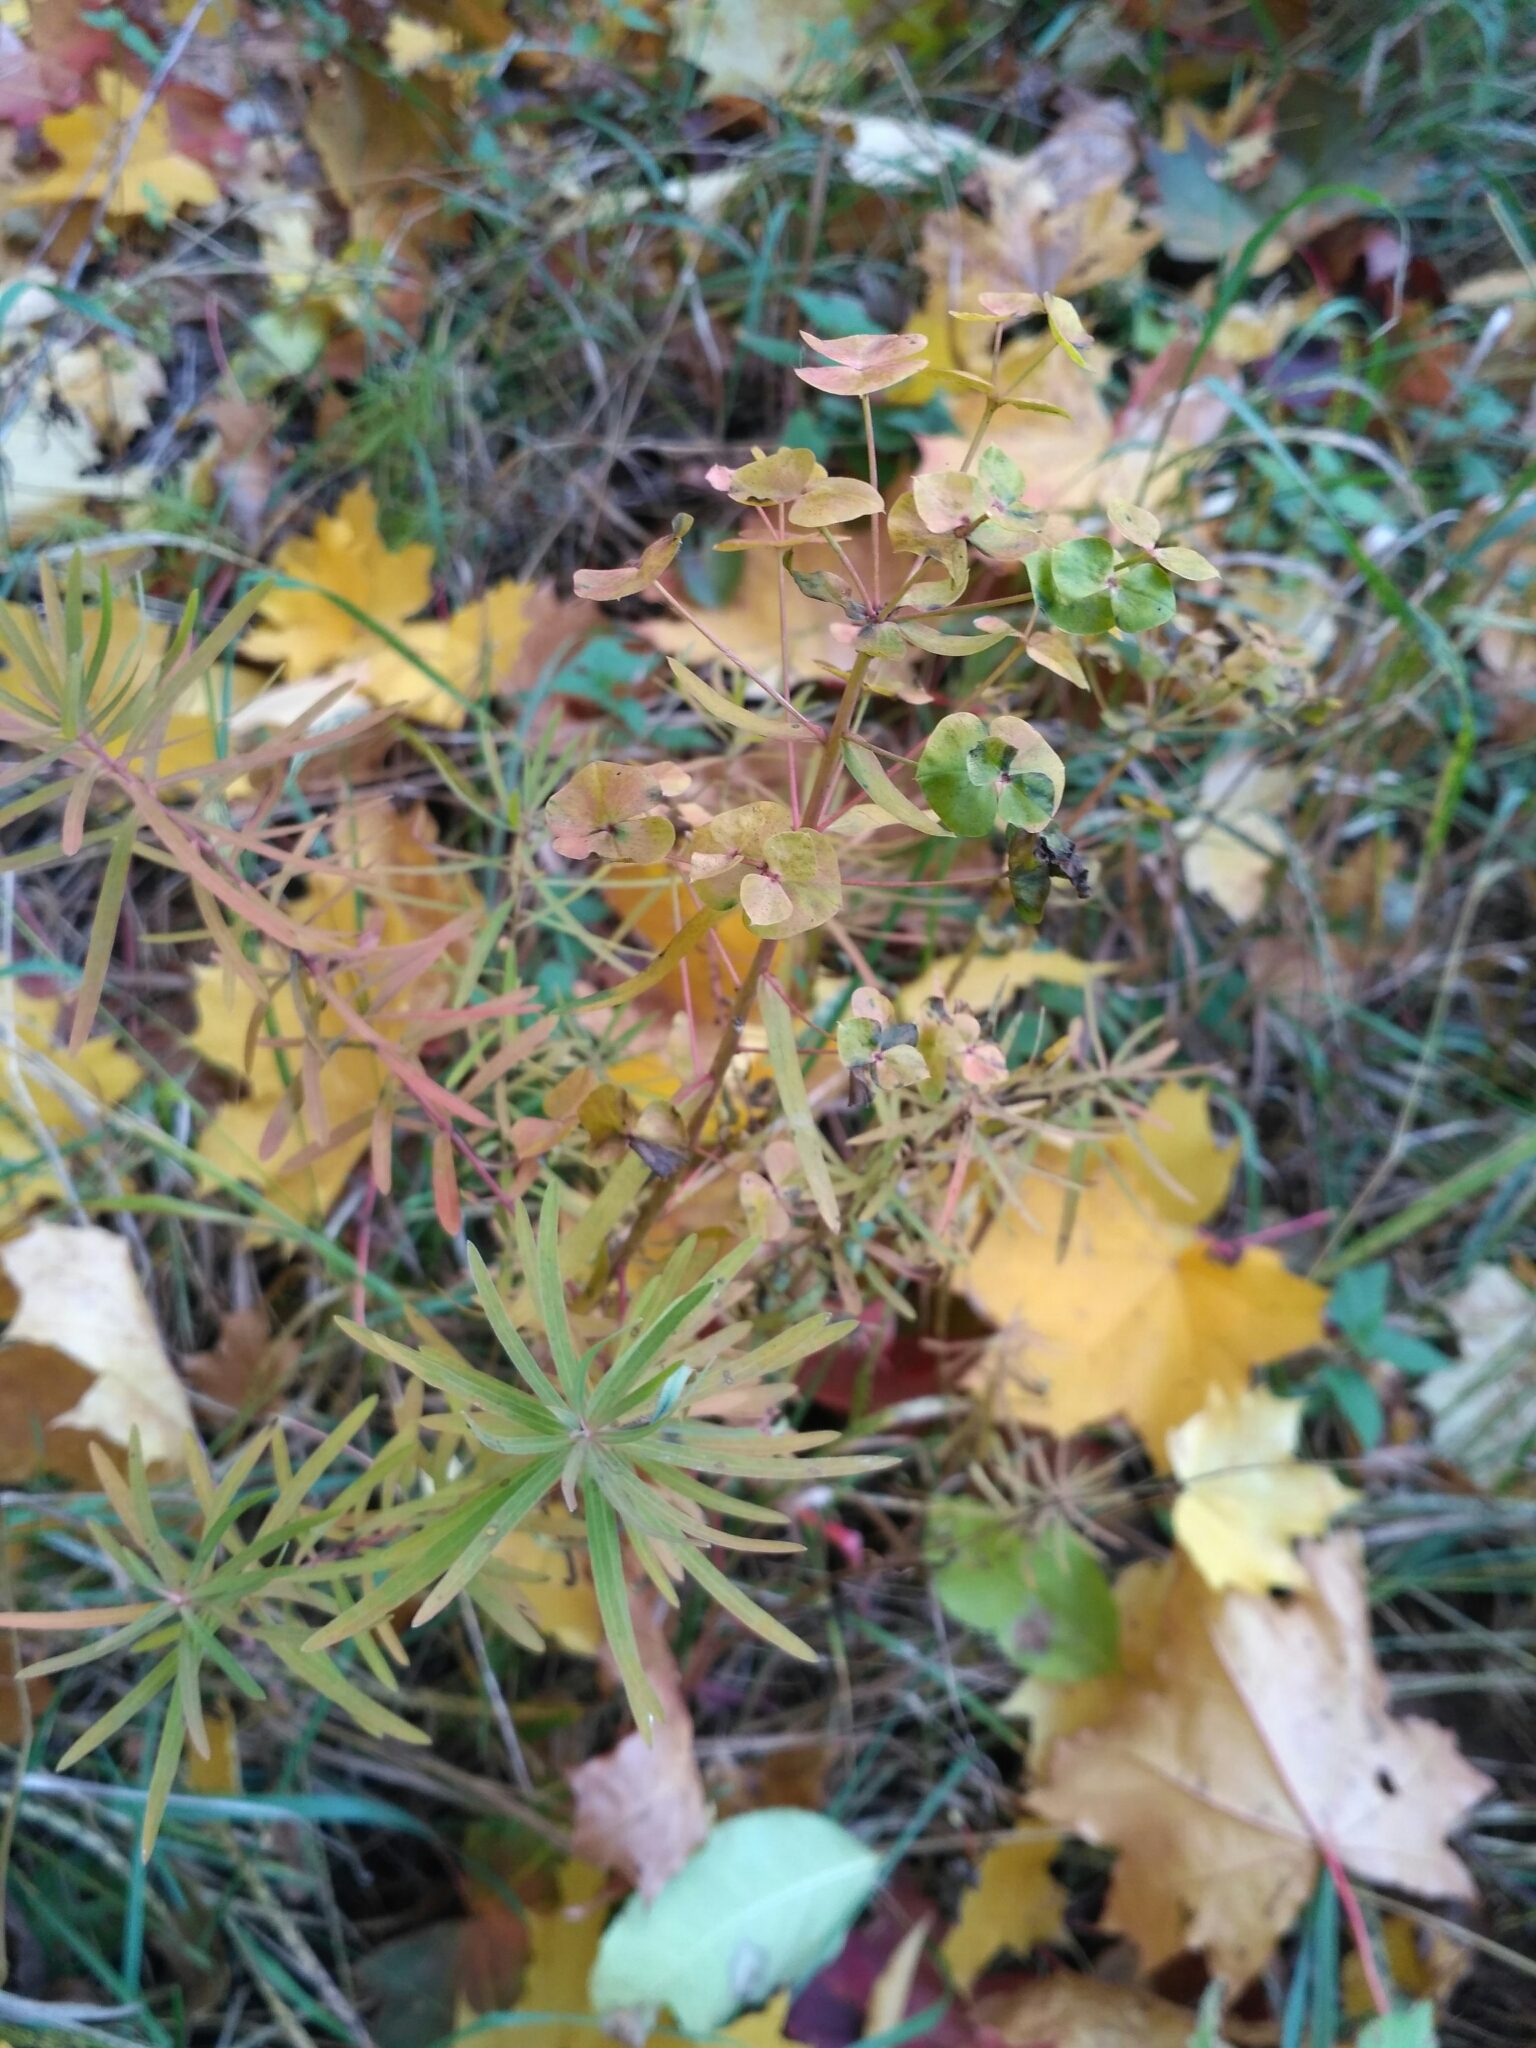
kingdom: Plantae
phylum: Tracheophyta
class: Magnoliopsida
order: Malpighiales
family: Euphorbiaceae
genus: Euphorbia
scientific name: Euphorbia virgata
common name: Leafy spurge
